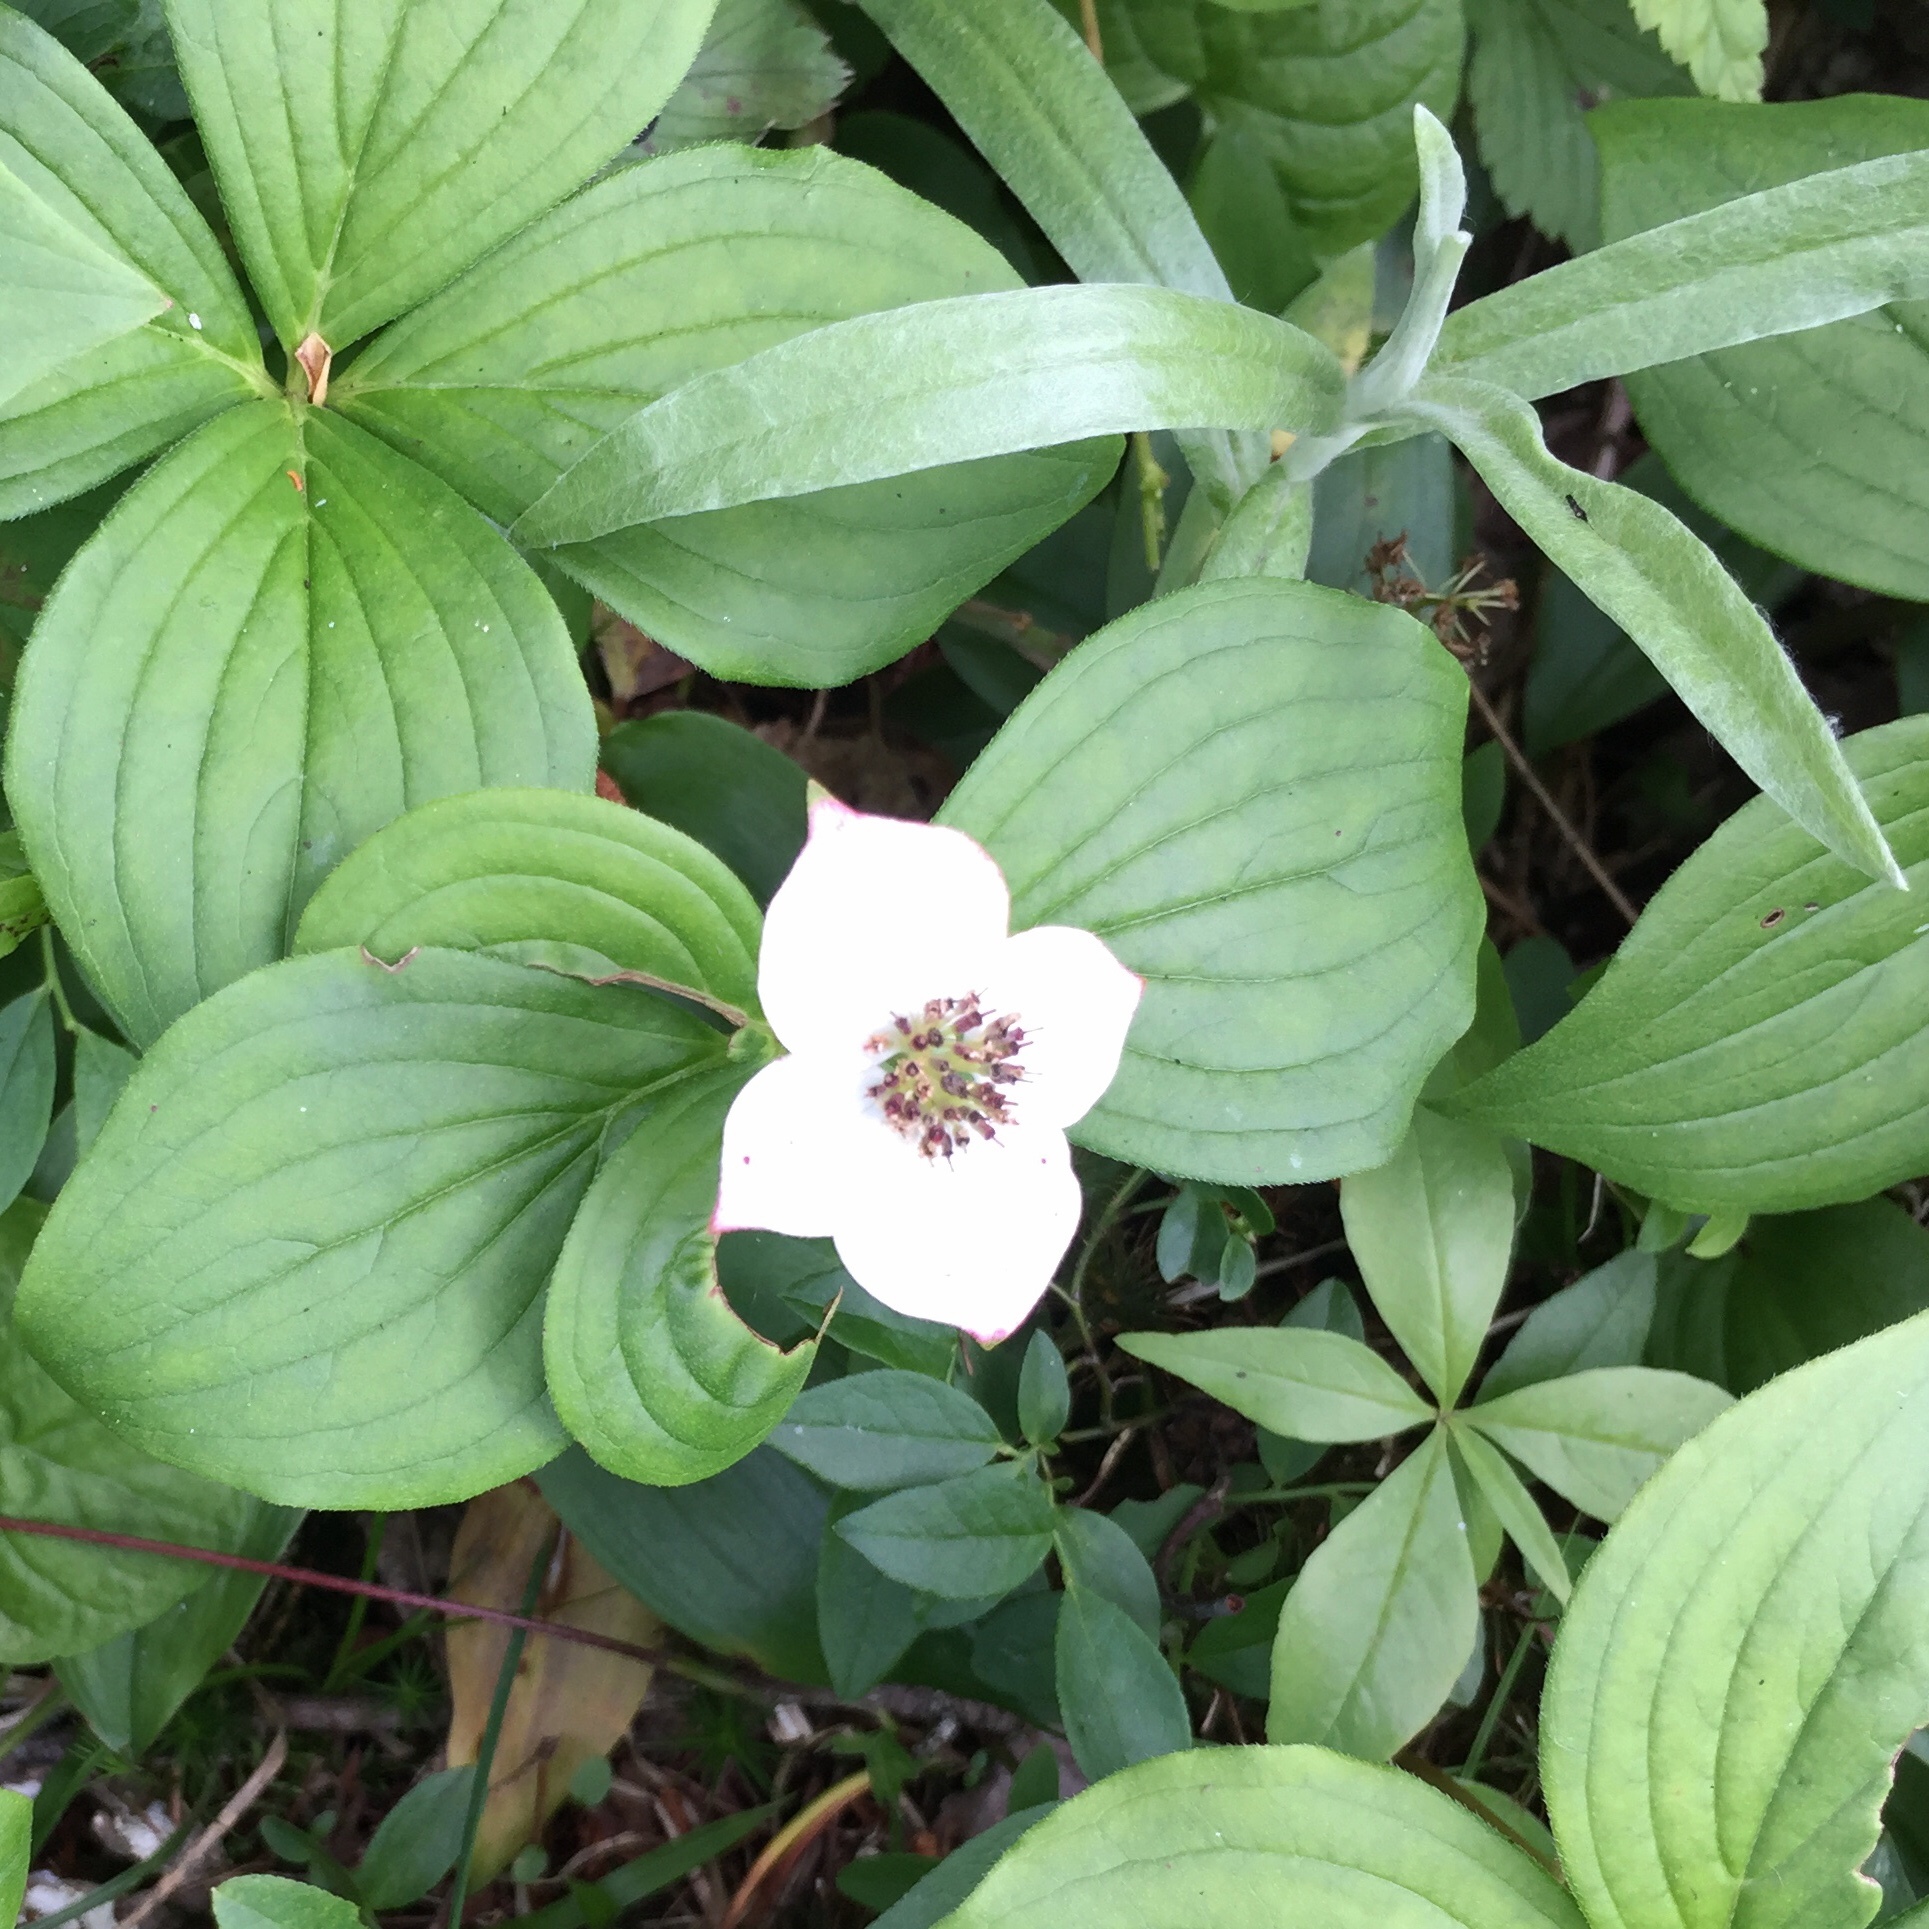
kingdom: Plantae
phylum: Tracheophyta
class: Magnoliopsida
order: Cornales
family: Cornaceae
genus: Cornus
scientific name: Cornus canadensis
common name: Creeping dogwood
